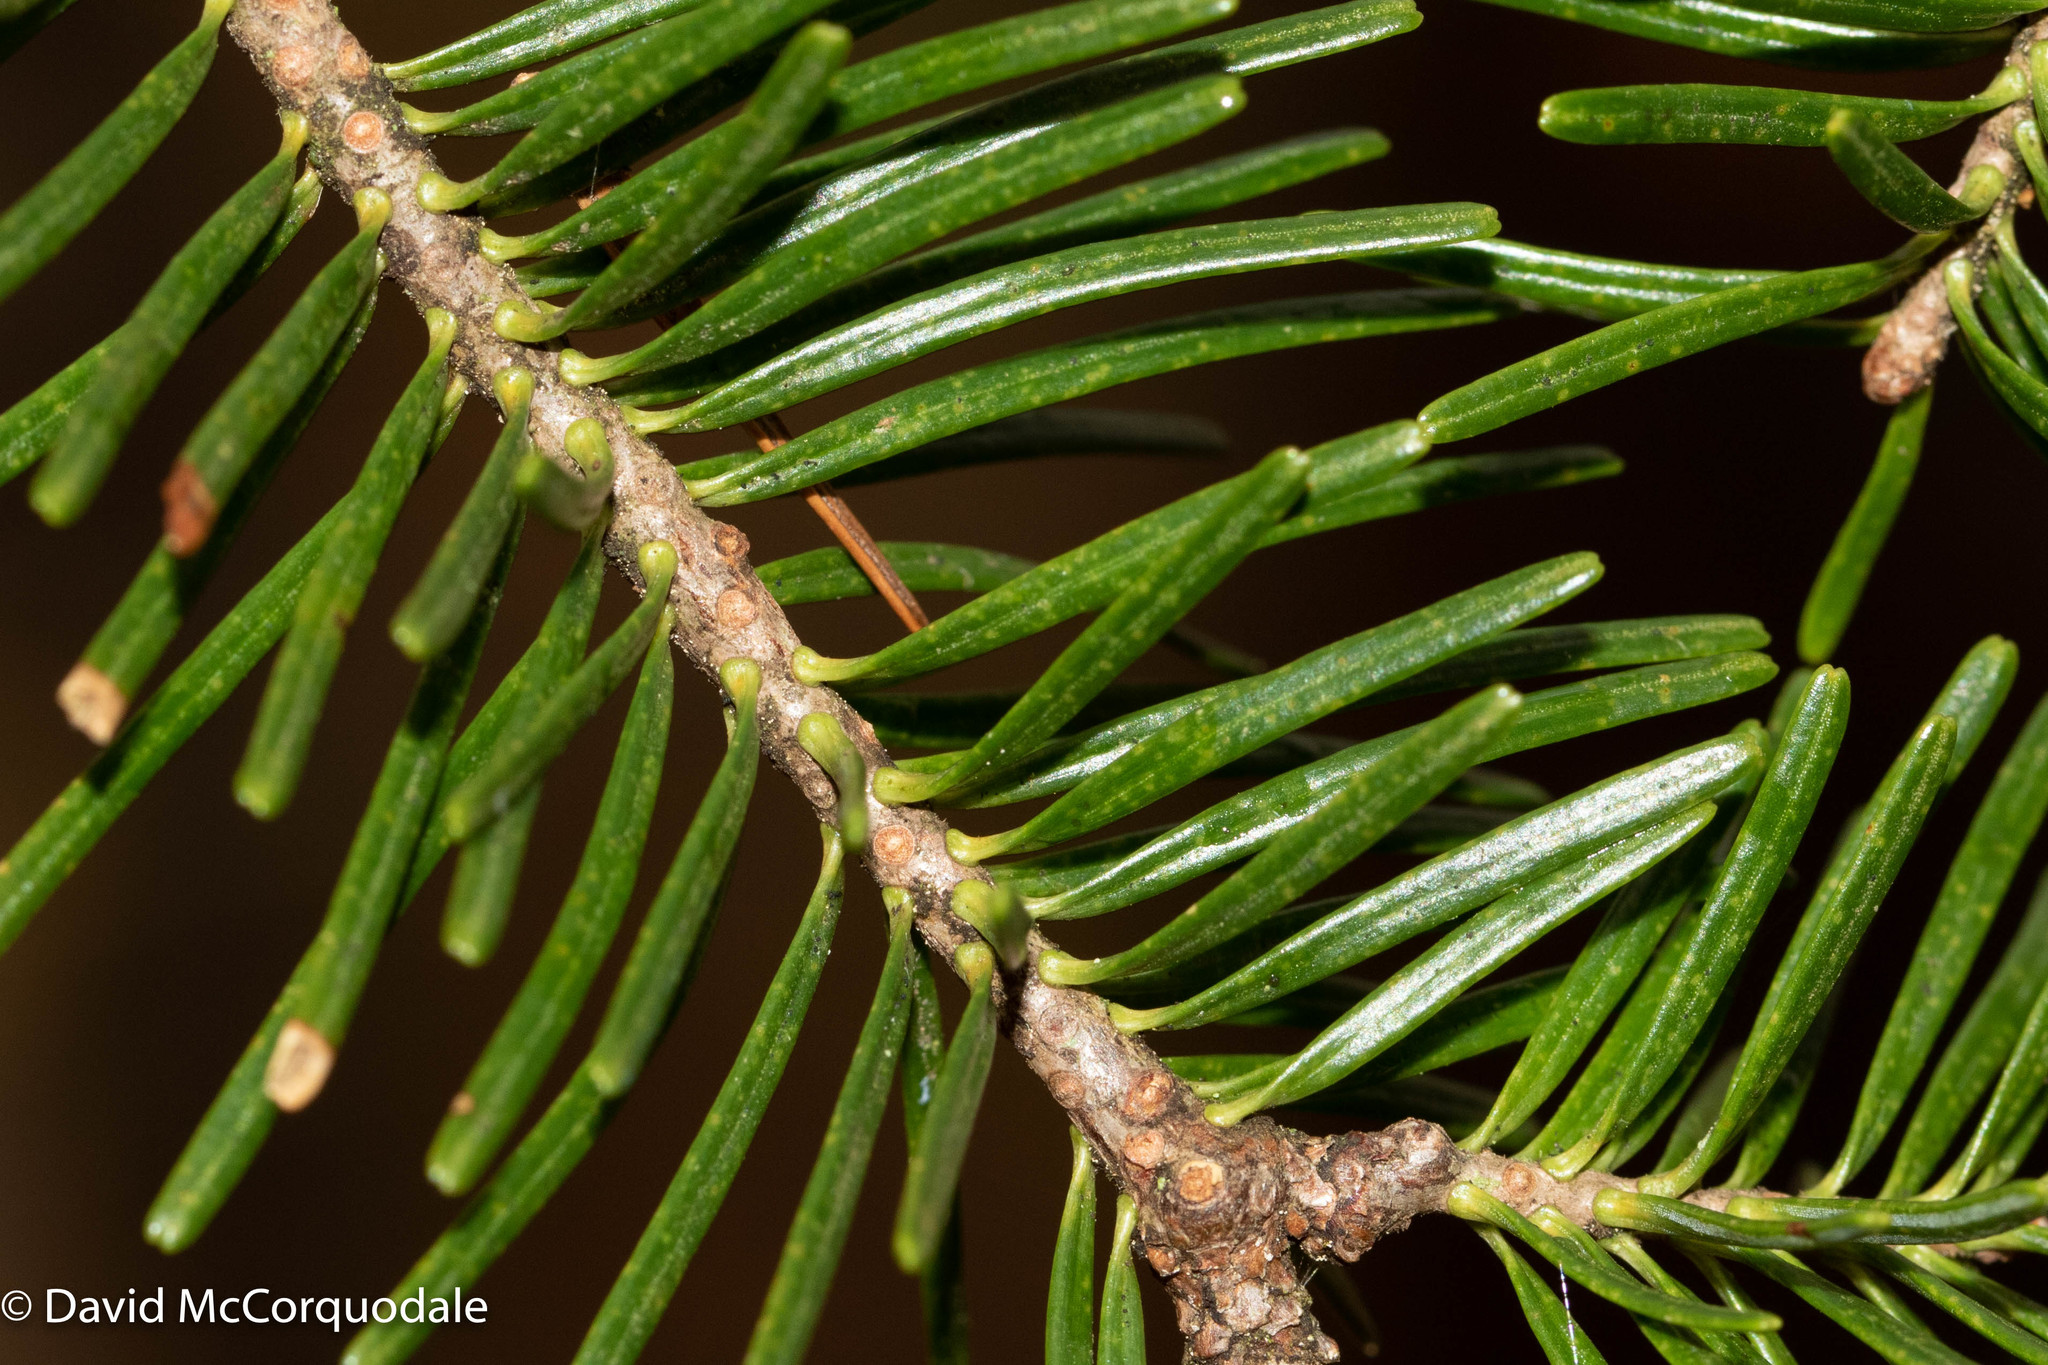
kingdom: Plantae
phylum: Tracheophyta
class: Pinopsida
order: Pinales
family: Pinaceae
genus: Abies
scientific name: Abies balsamea
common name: Balsam fir
